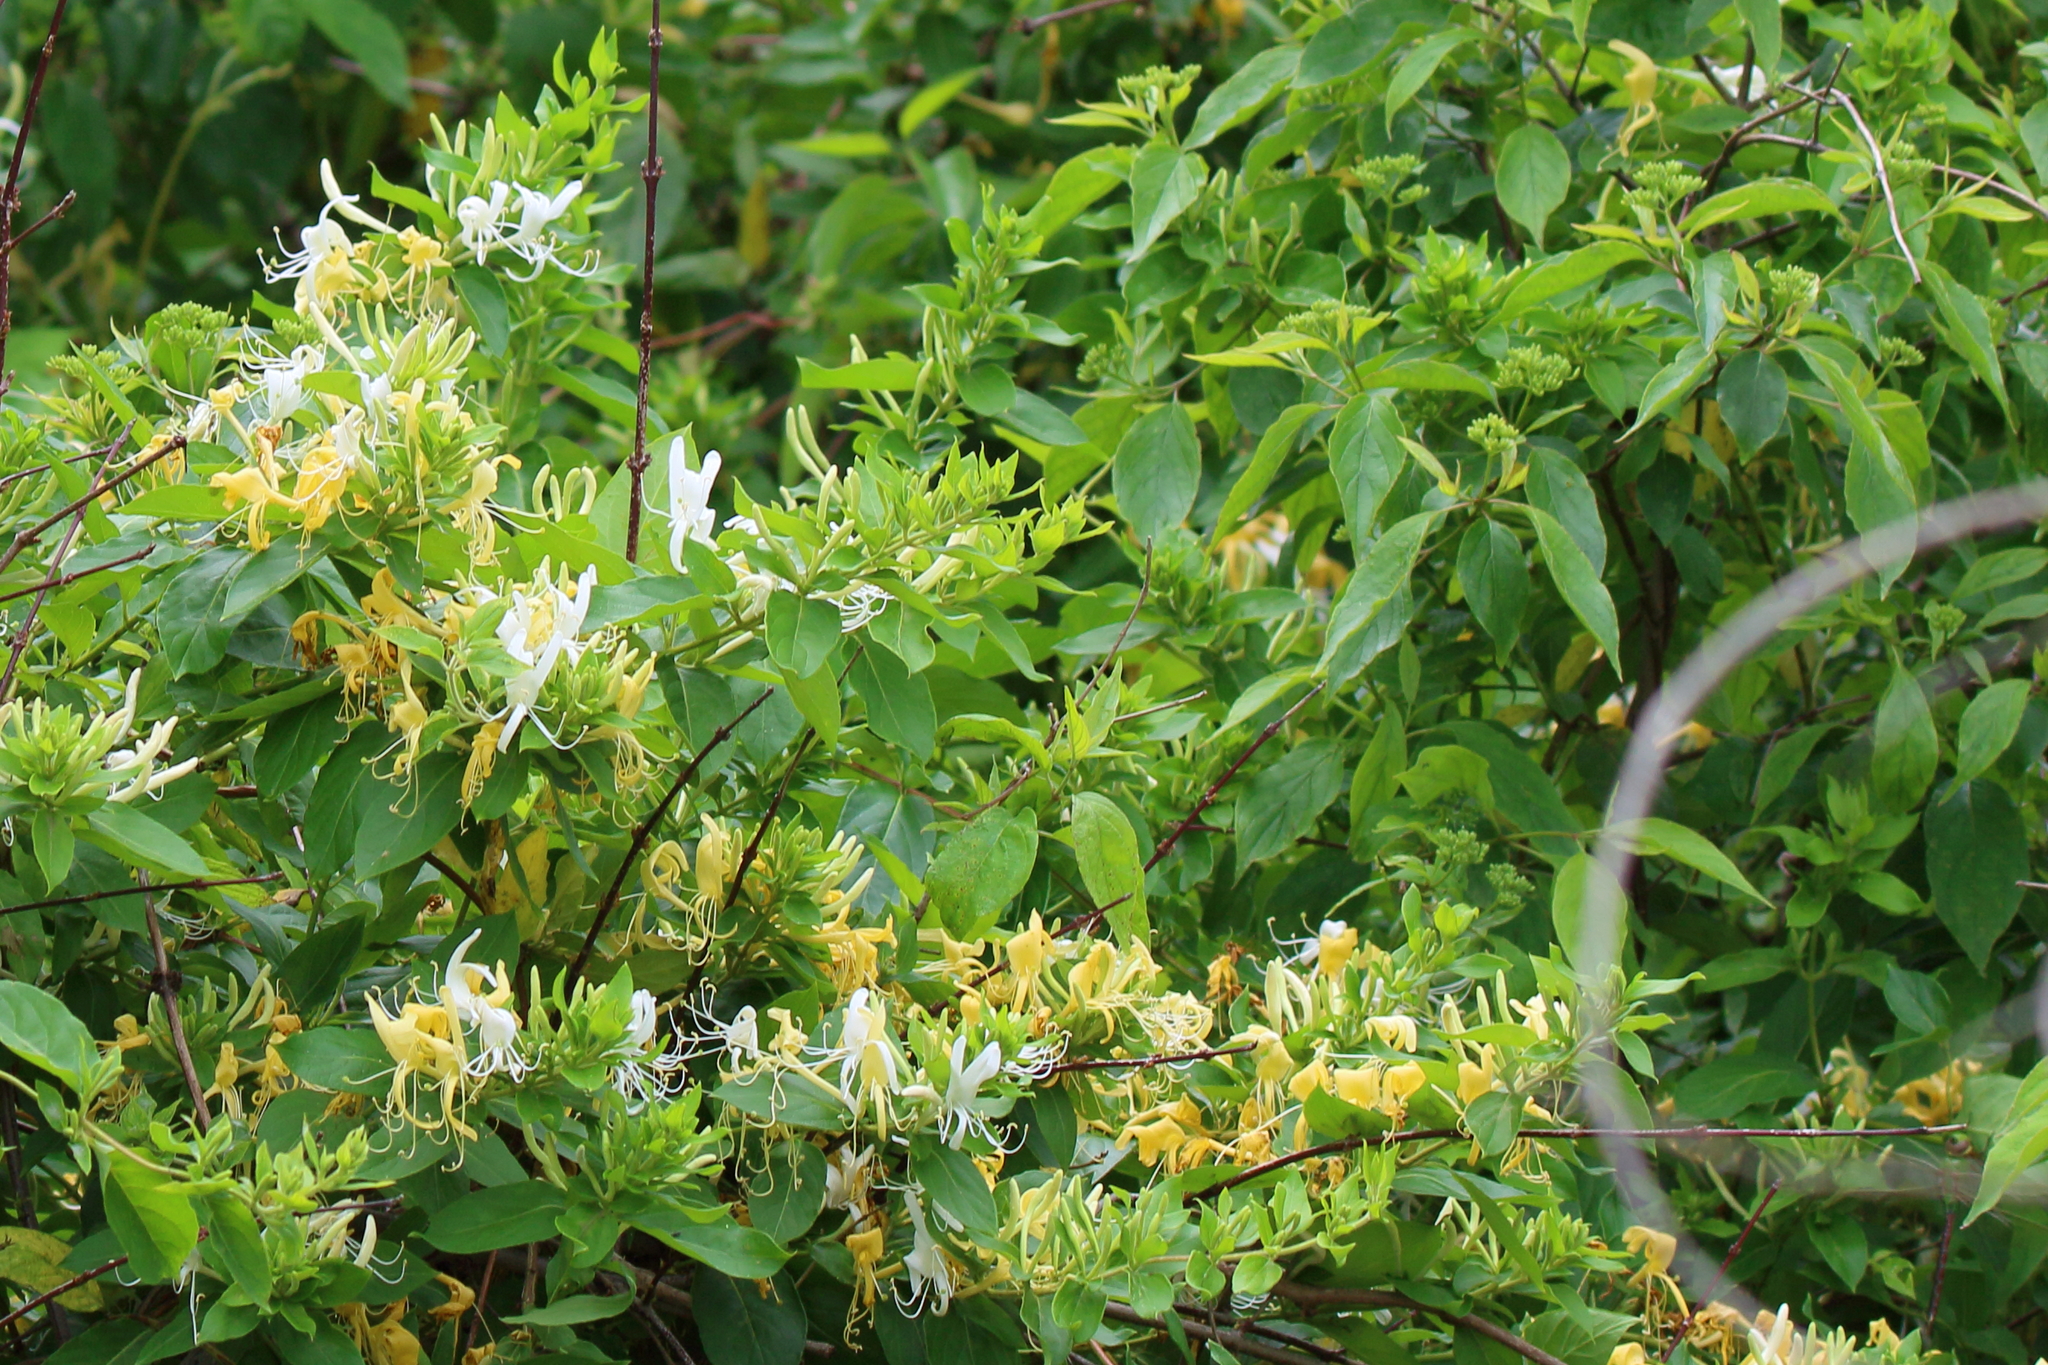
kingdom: Plantae
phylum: Tracheophyta
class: Magnoliopsida
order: Dipsacales
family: Caprifoliaceae
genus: Lonicera
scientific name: Lonicera japonica
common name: Japanese honeysuckle
